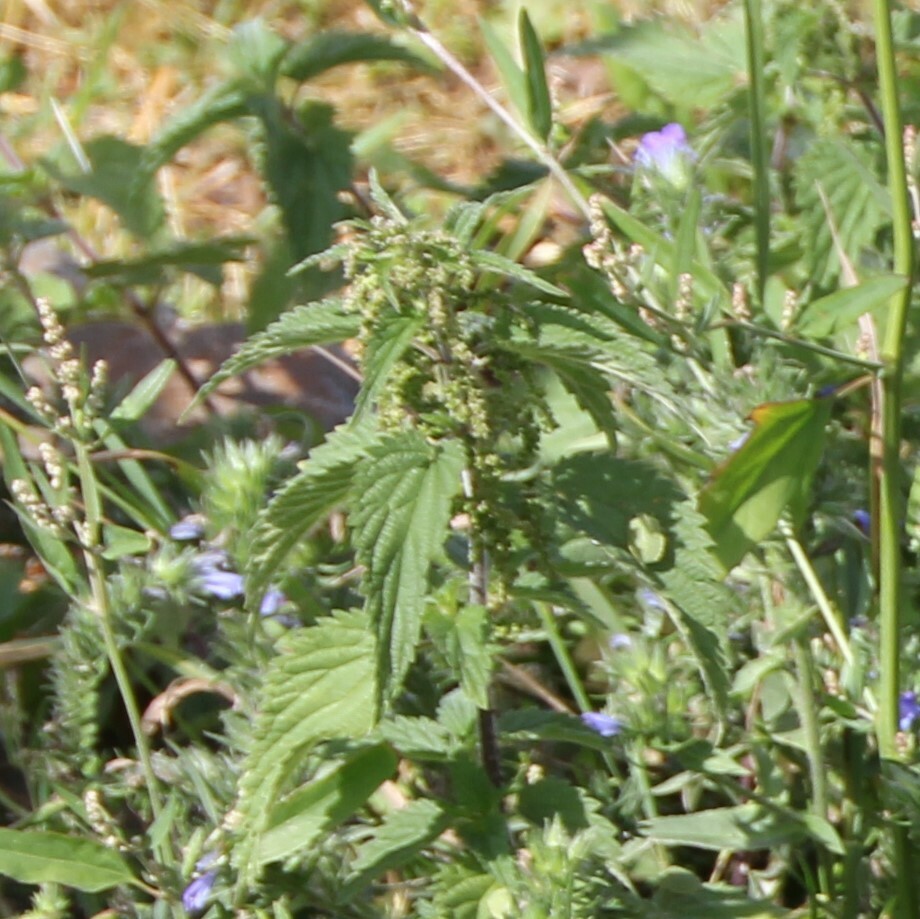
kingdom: Plantae
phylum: Tracheophyta
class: Magnoliopsida
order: Rosales
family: Urticaceae
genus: Urtica
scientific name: Urtica dioica
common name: Common nettle
